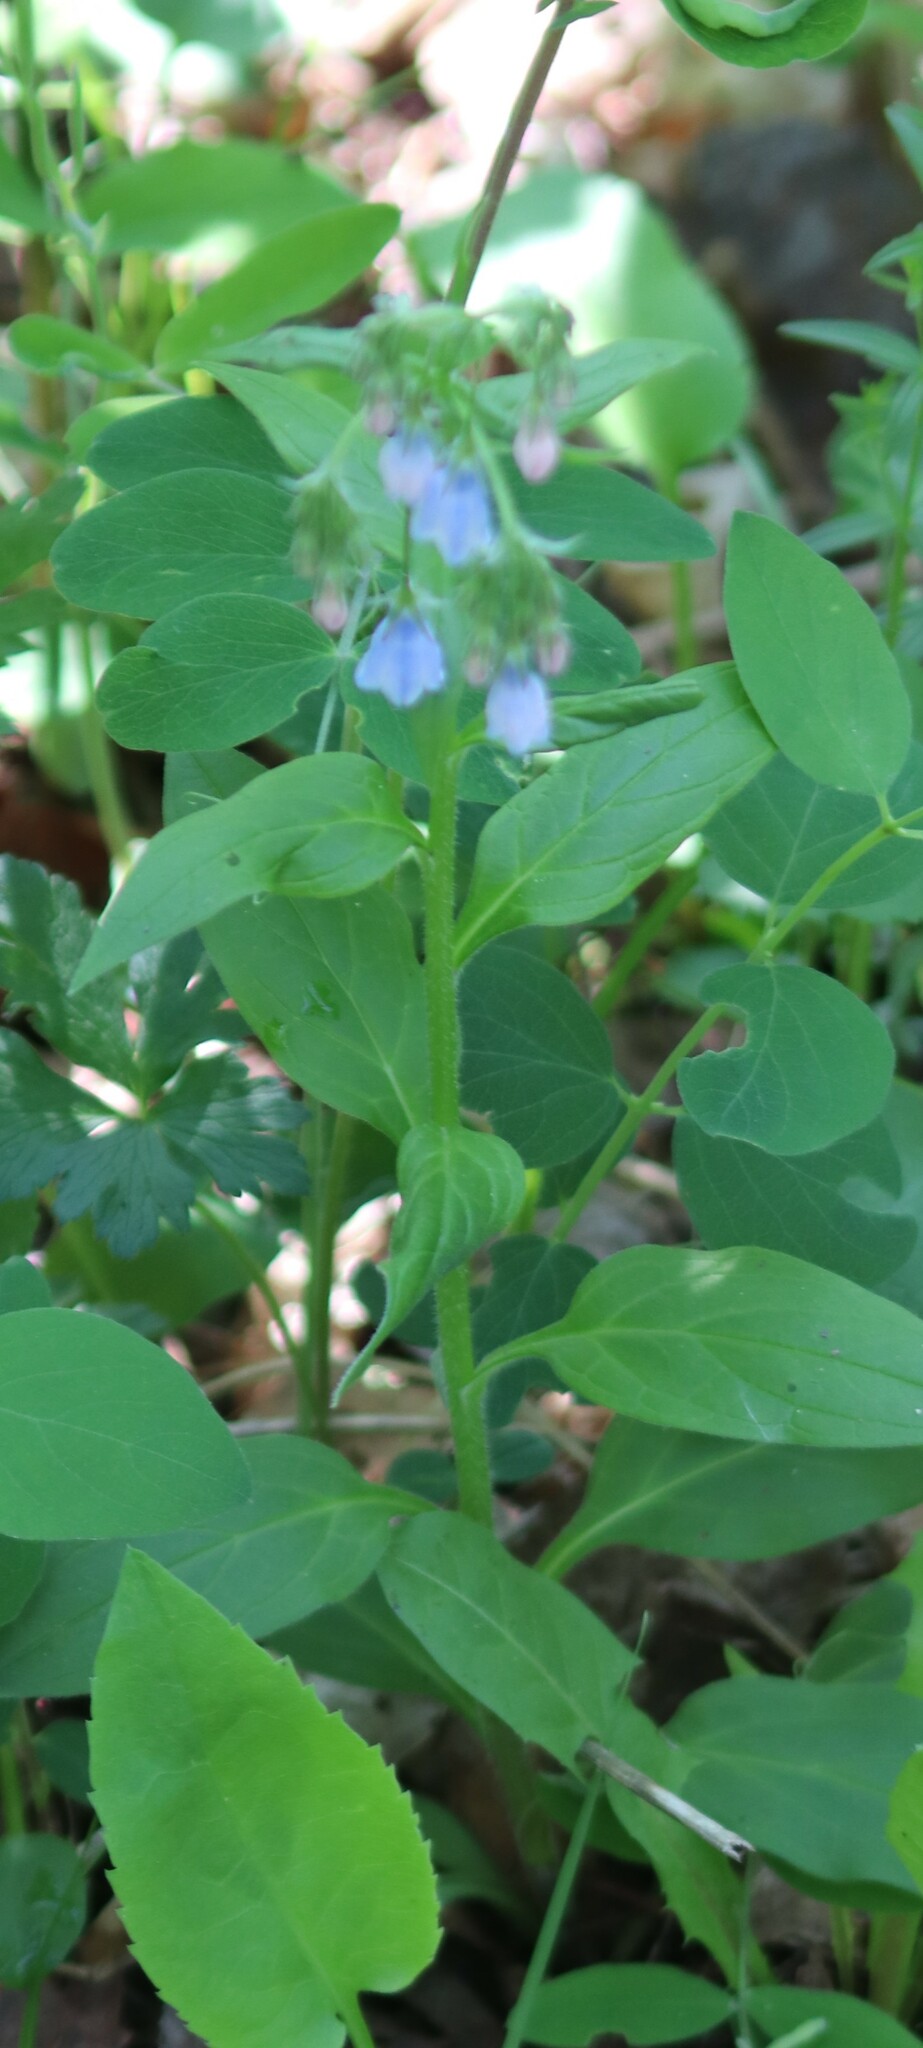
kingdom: Plantae
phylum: Tracheophyta
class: Magnoliopsida
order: Boraginales
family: Boraginaceae
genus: Mertensia
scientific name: Mertensia paniculata
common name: Panicled bluebells
